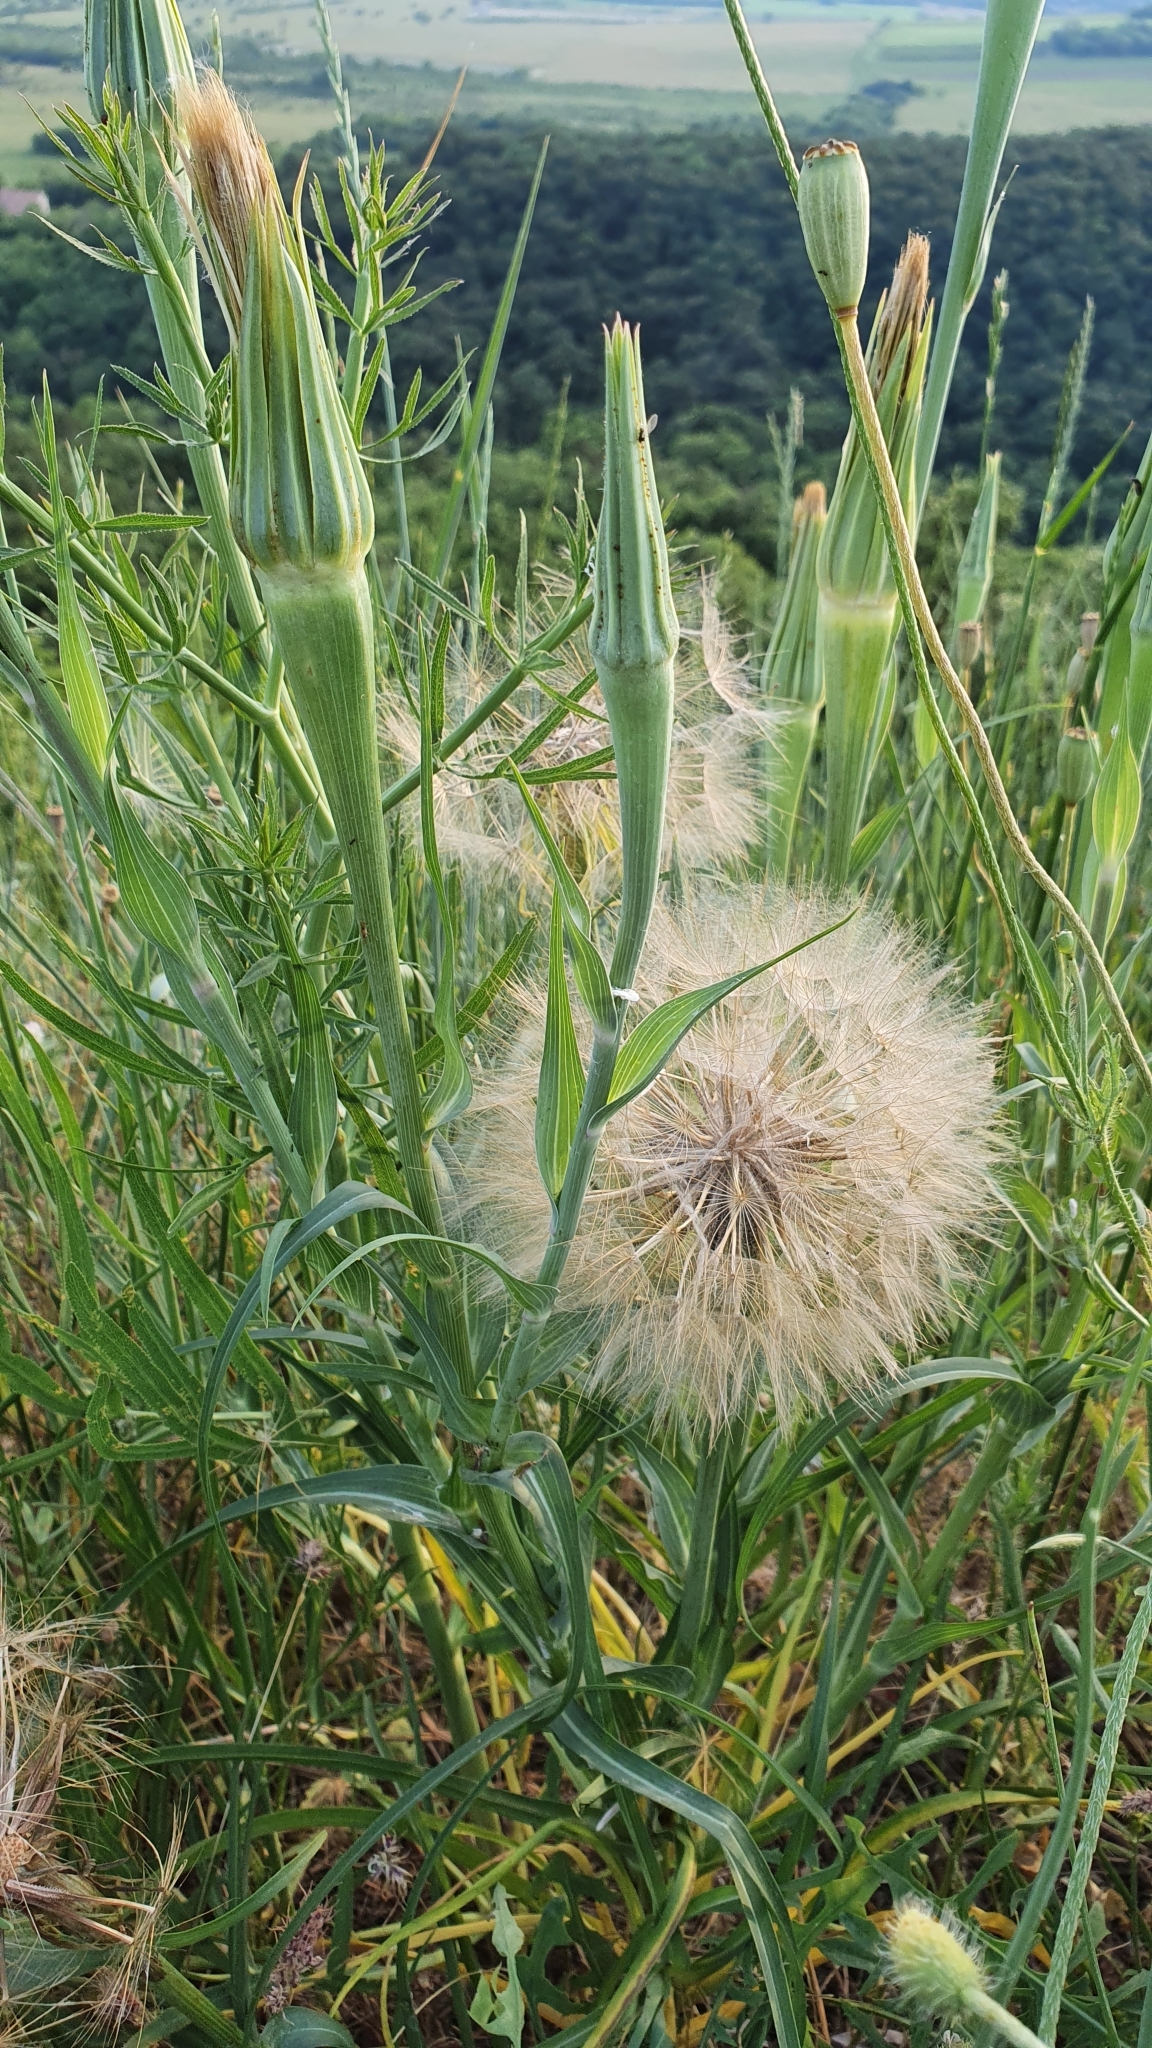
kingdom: Plantae
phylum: Tracheophyta
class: Magnoliopsida
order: Asterales
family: Asteraceae
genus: Tragopogon
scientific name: Tragopogon dubius
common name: Yellow salsify
